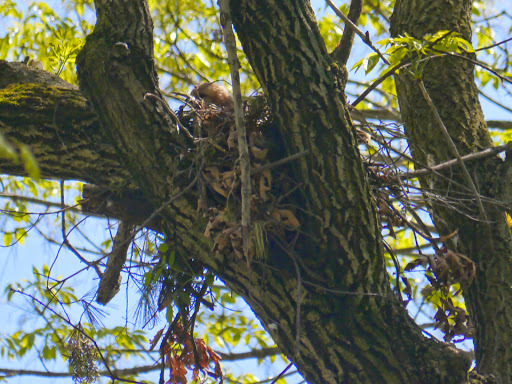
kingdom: Animalia
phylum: Chordata
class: Aves
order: Accipitriformes
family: Accipitridae
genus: Buteo
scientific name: Buteo lineatus
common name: Red-shouldered hawk
